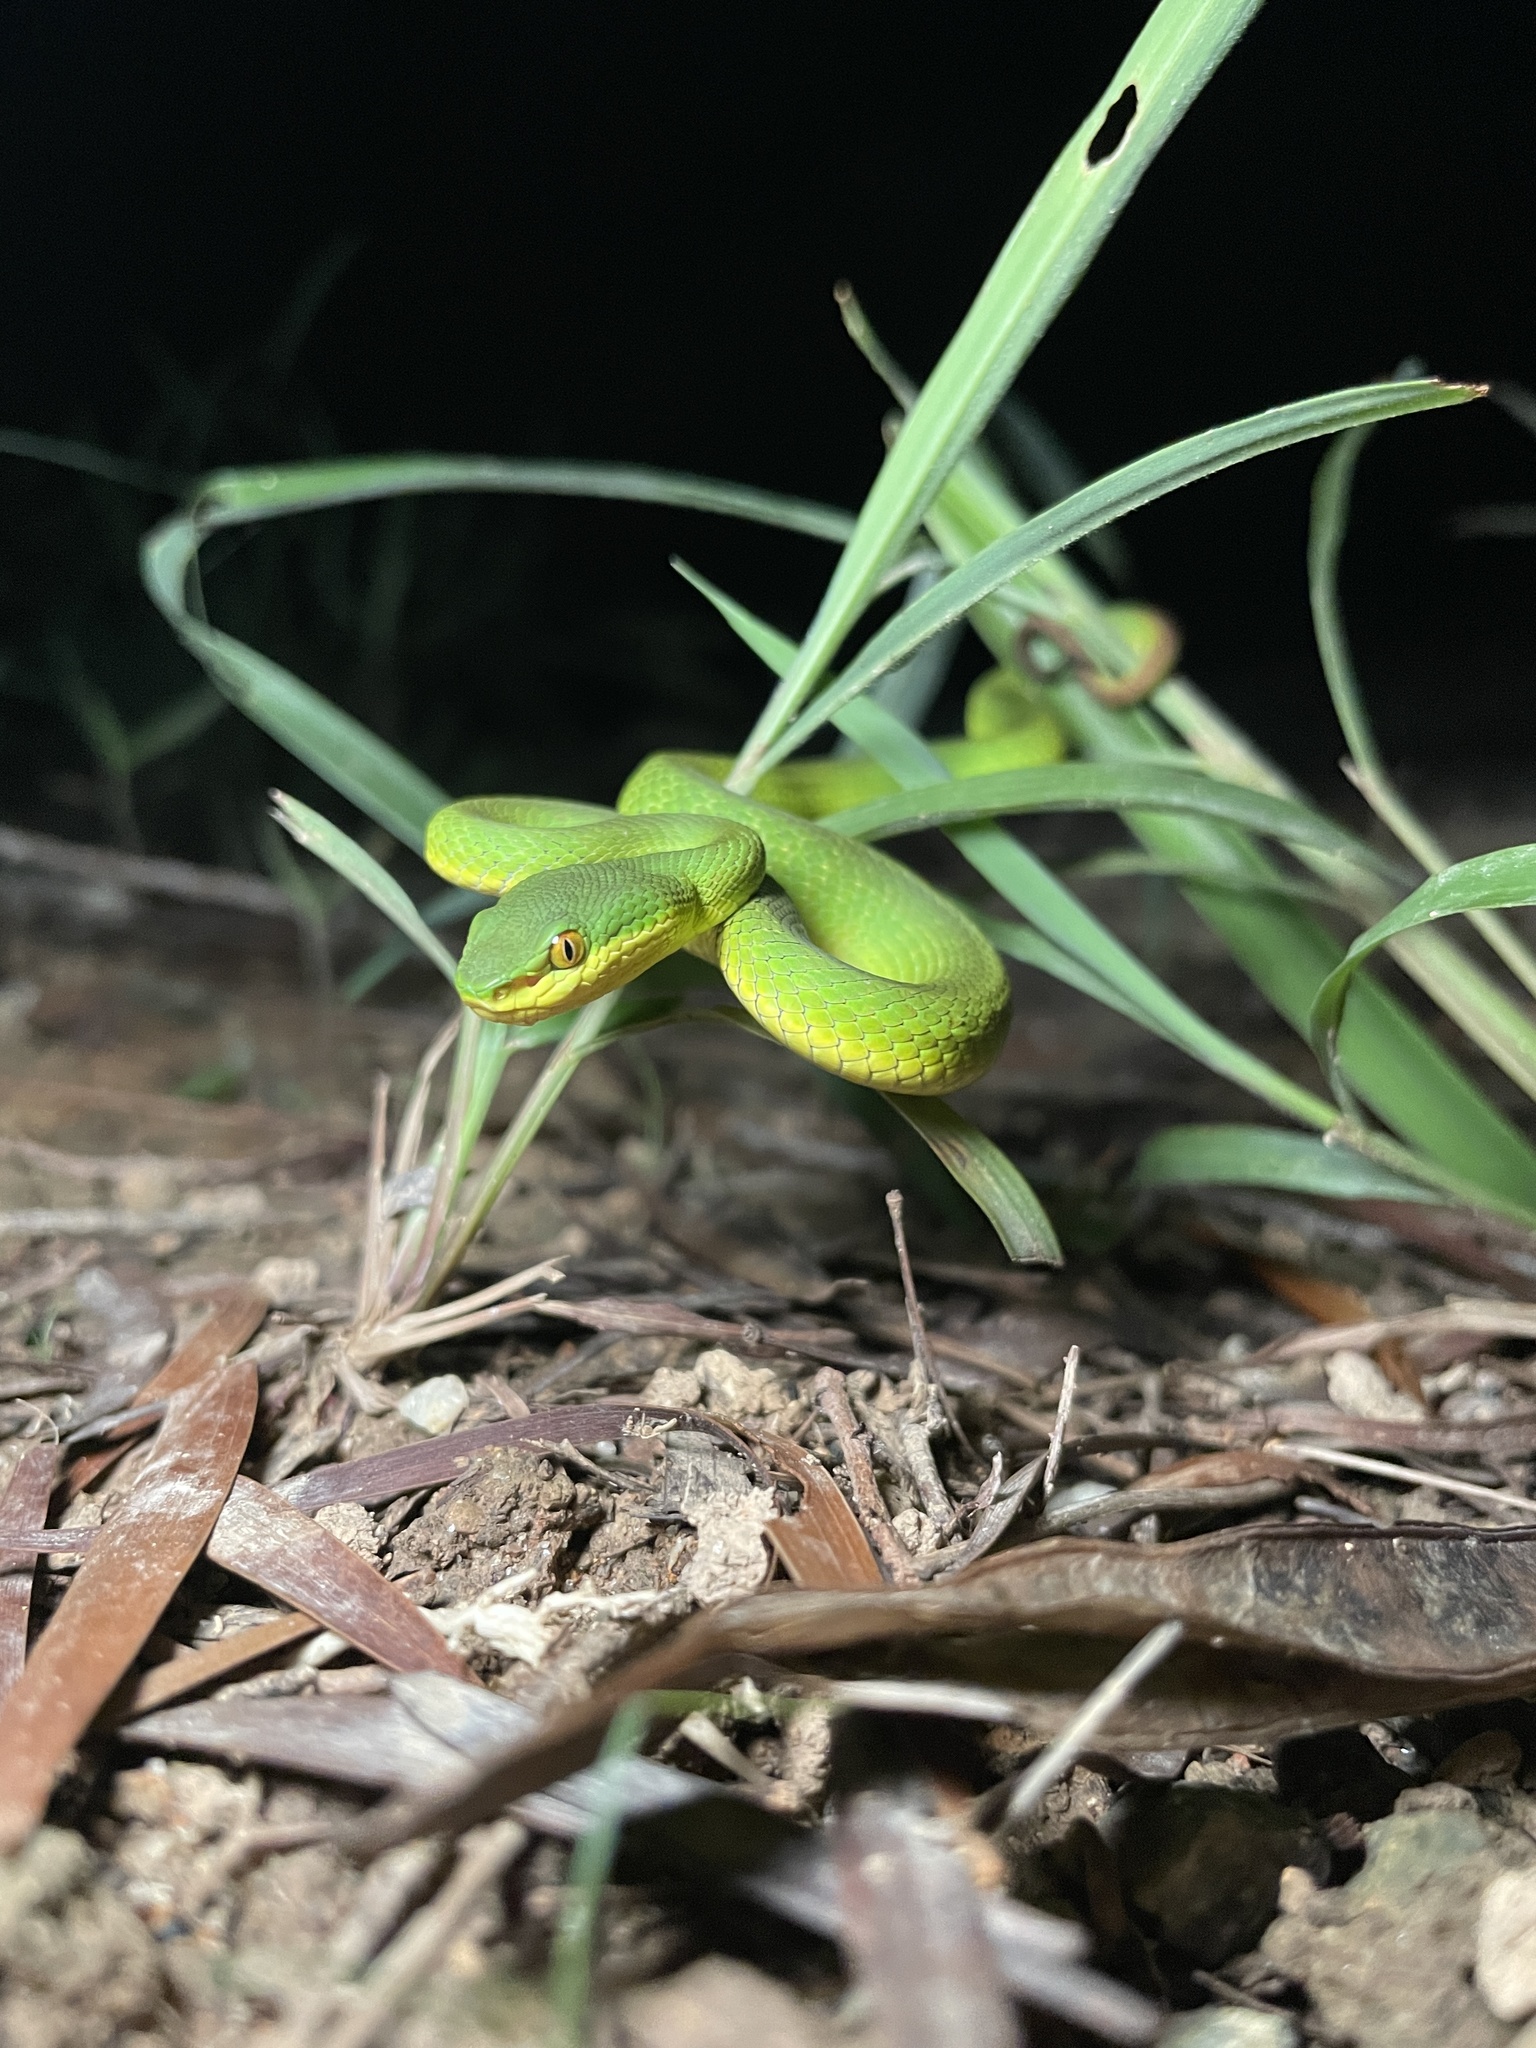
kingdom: Animalia
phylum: Chordata
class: Squamata
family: Viperidae
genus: Trimeresurus
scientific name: Trimeresurus albolabris
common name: White-lipped pitviper
